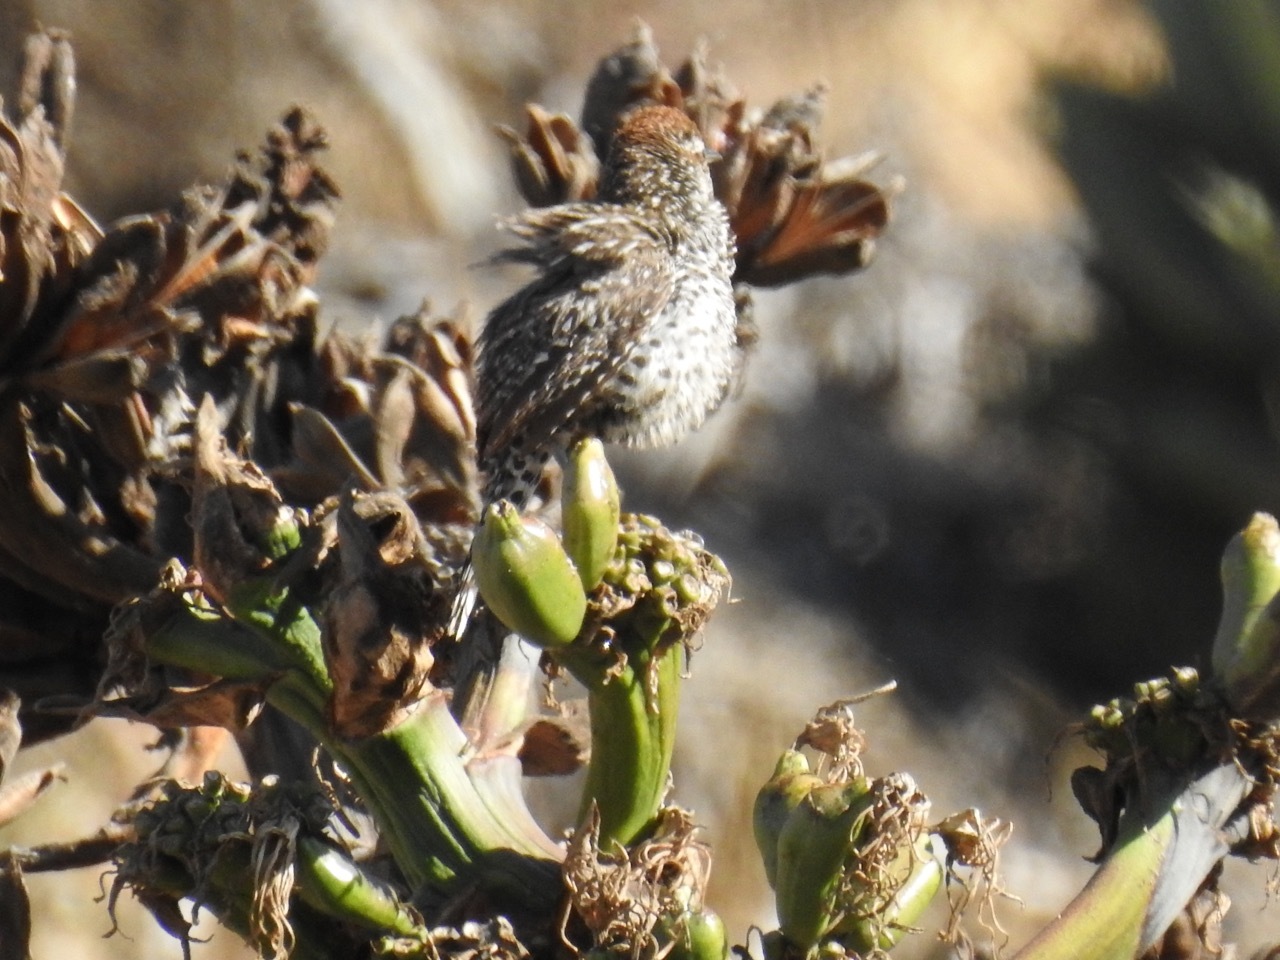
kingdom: Animalia
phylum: Chordata
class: Aves
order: Passeriformes
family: Troglodytidae
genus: Campylorhynchus
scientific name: Campylorhynchus brunneicapillus
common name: Cactus wren
